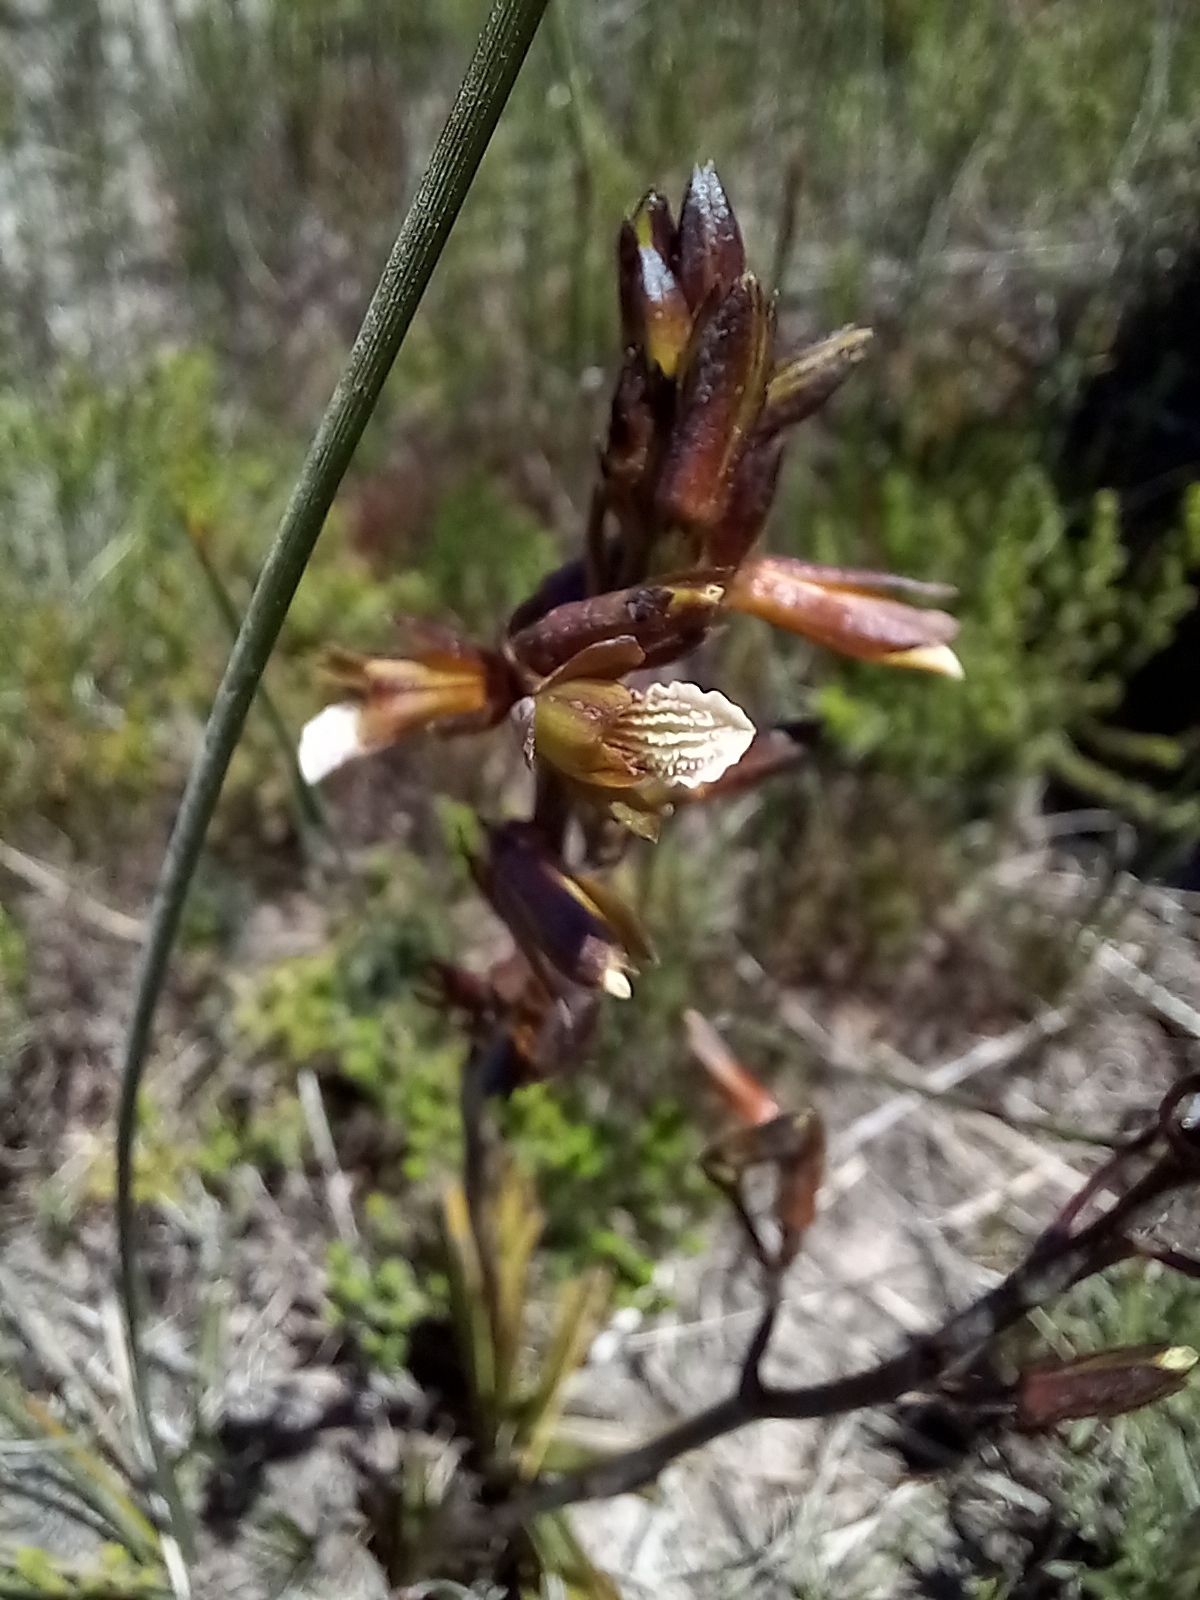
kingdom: Plantae
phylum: Tracheophyta
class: Liliopsida
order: Asparagales
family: Orchidaceae
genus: Eulophia
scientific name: Eulophia tristis
